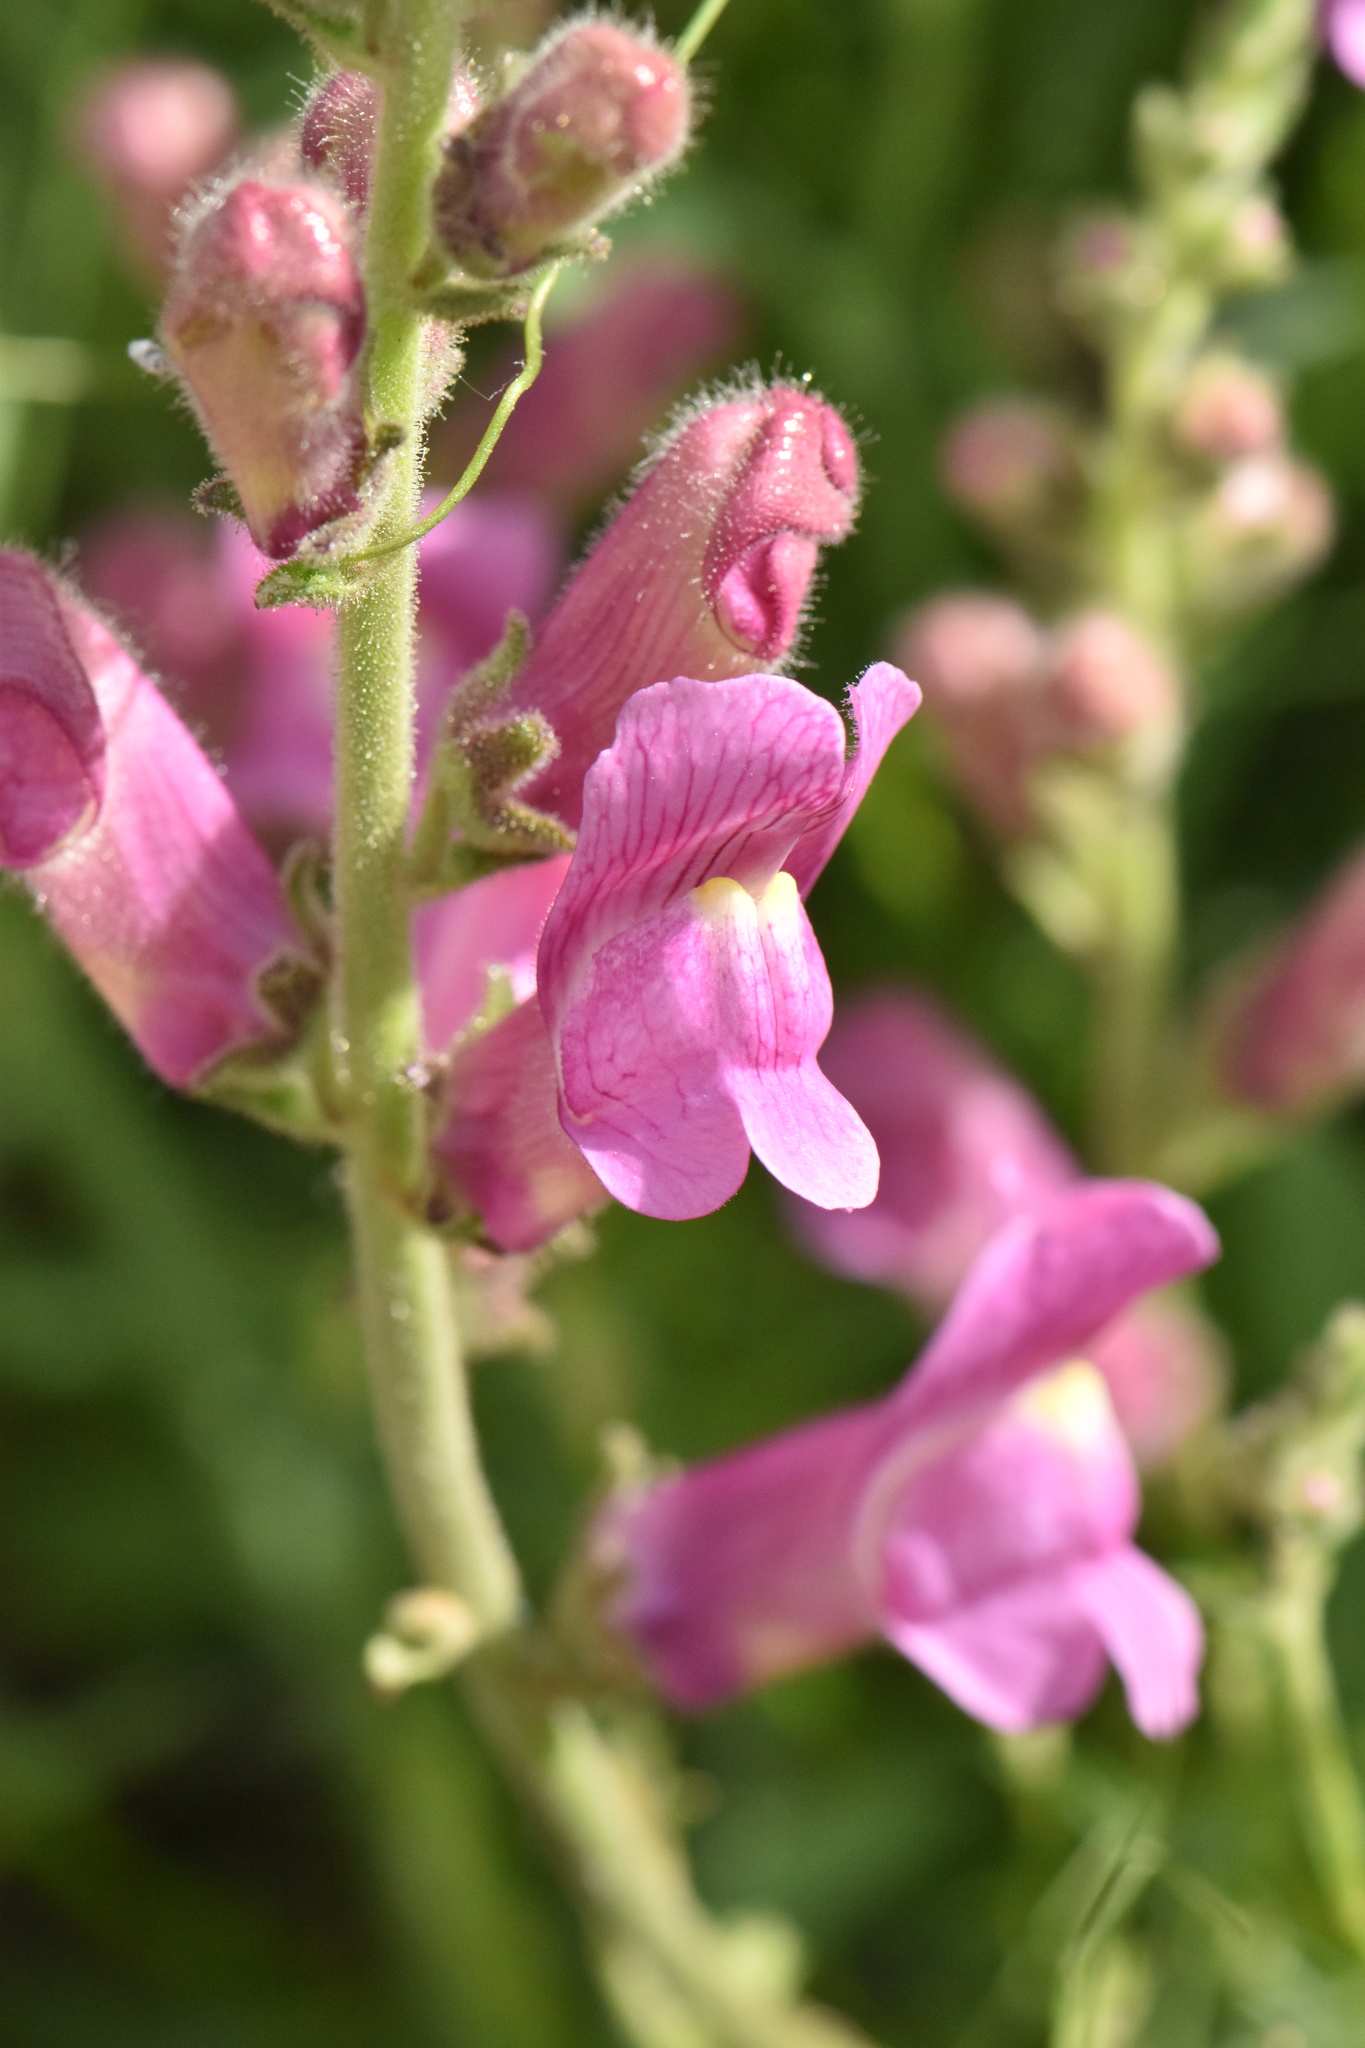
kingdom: Plantae
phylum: Tracheophyta
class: Magnoliopsida
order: Lamiales
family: Plantaginaceae
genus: Antirrhinum
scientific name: Antirrhinum controversum
